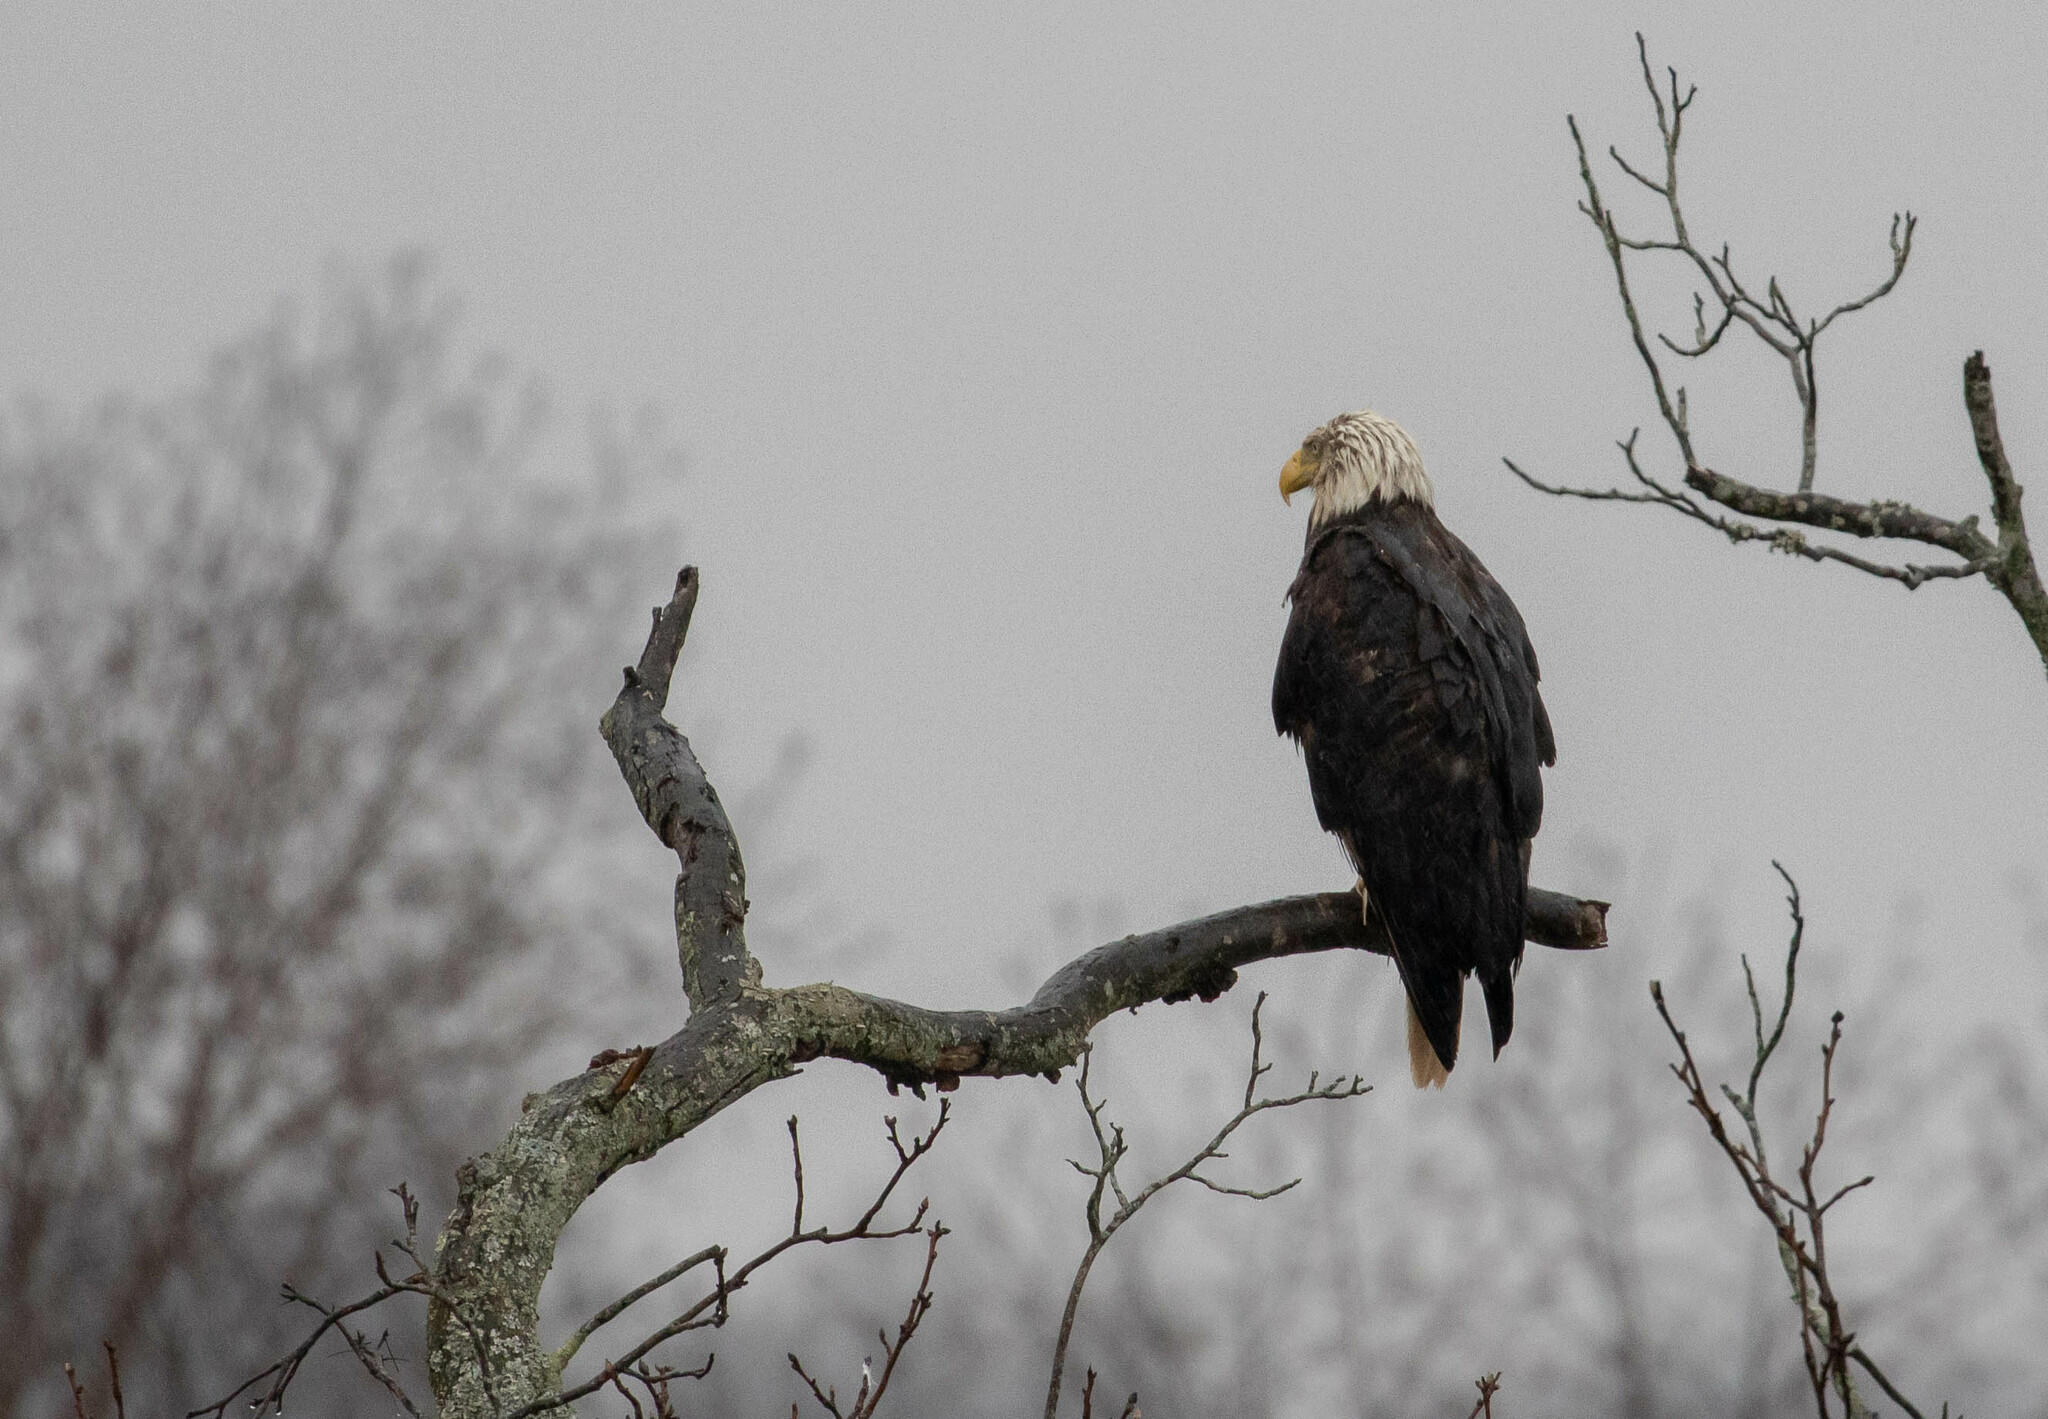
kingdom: Animalia
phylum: Chordata
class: Aves
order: Accipitriformes
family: Accipitridae
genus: Haliaeetus
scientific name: Haliaeetus leucocephalus
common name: Bald eagle
